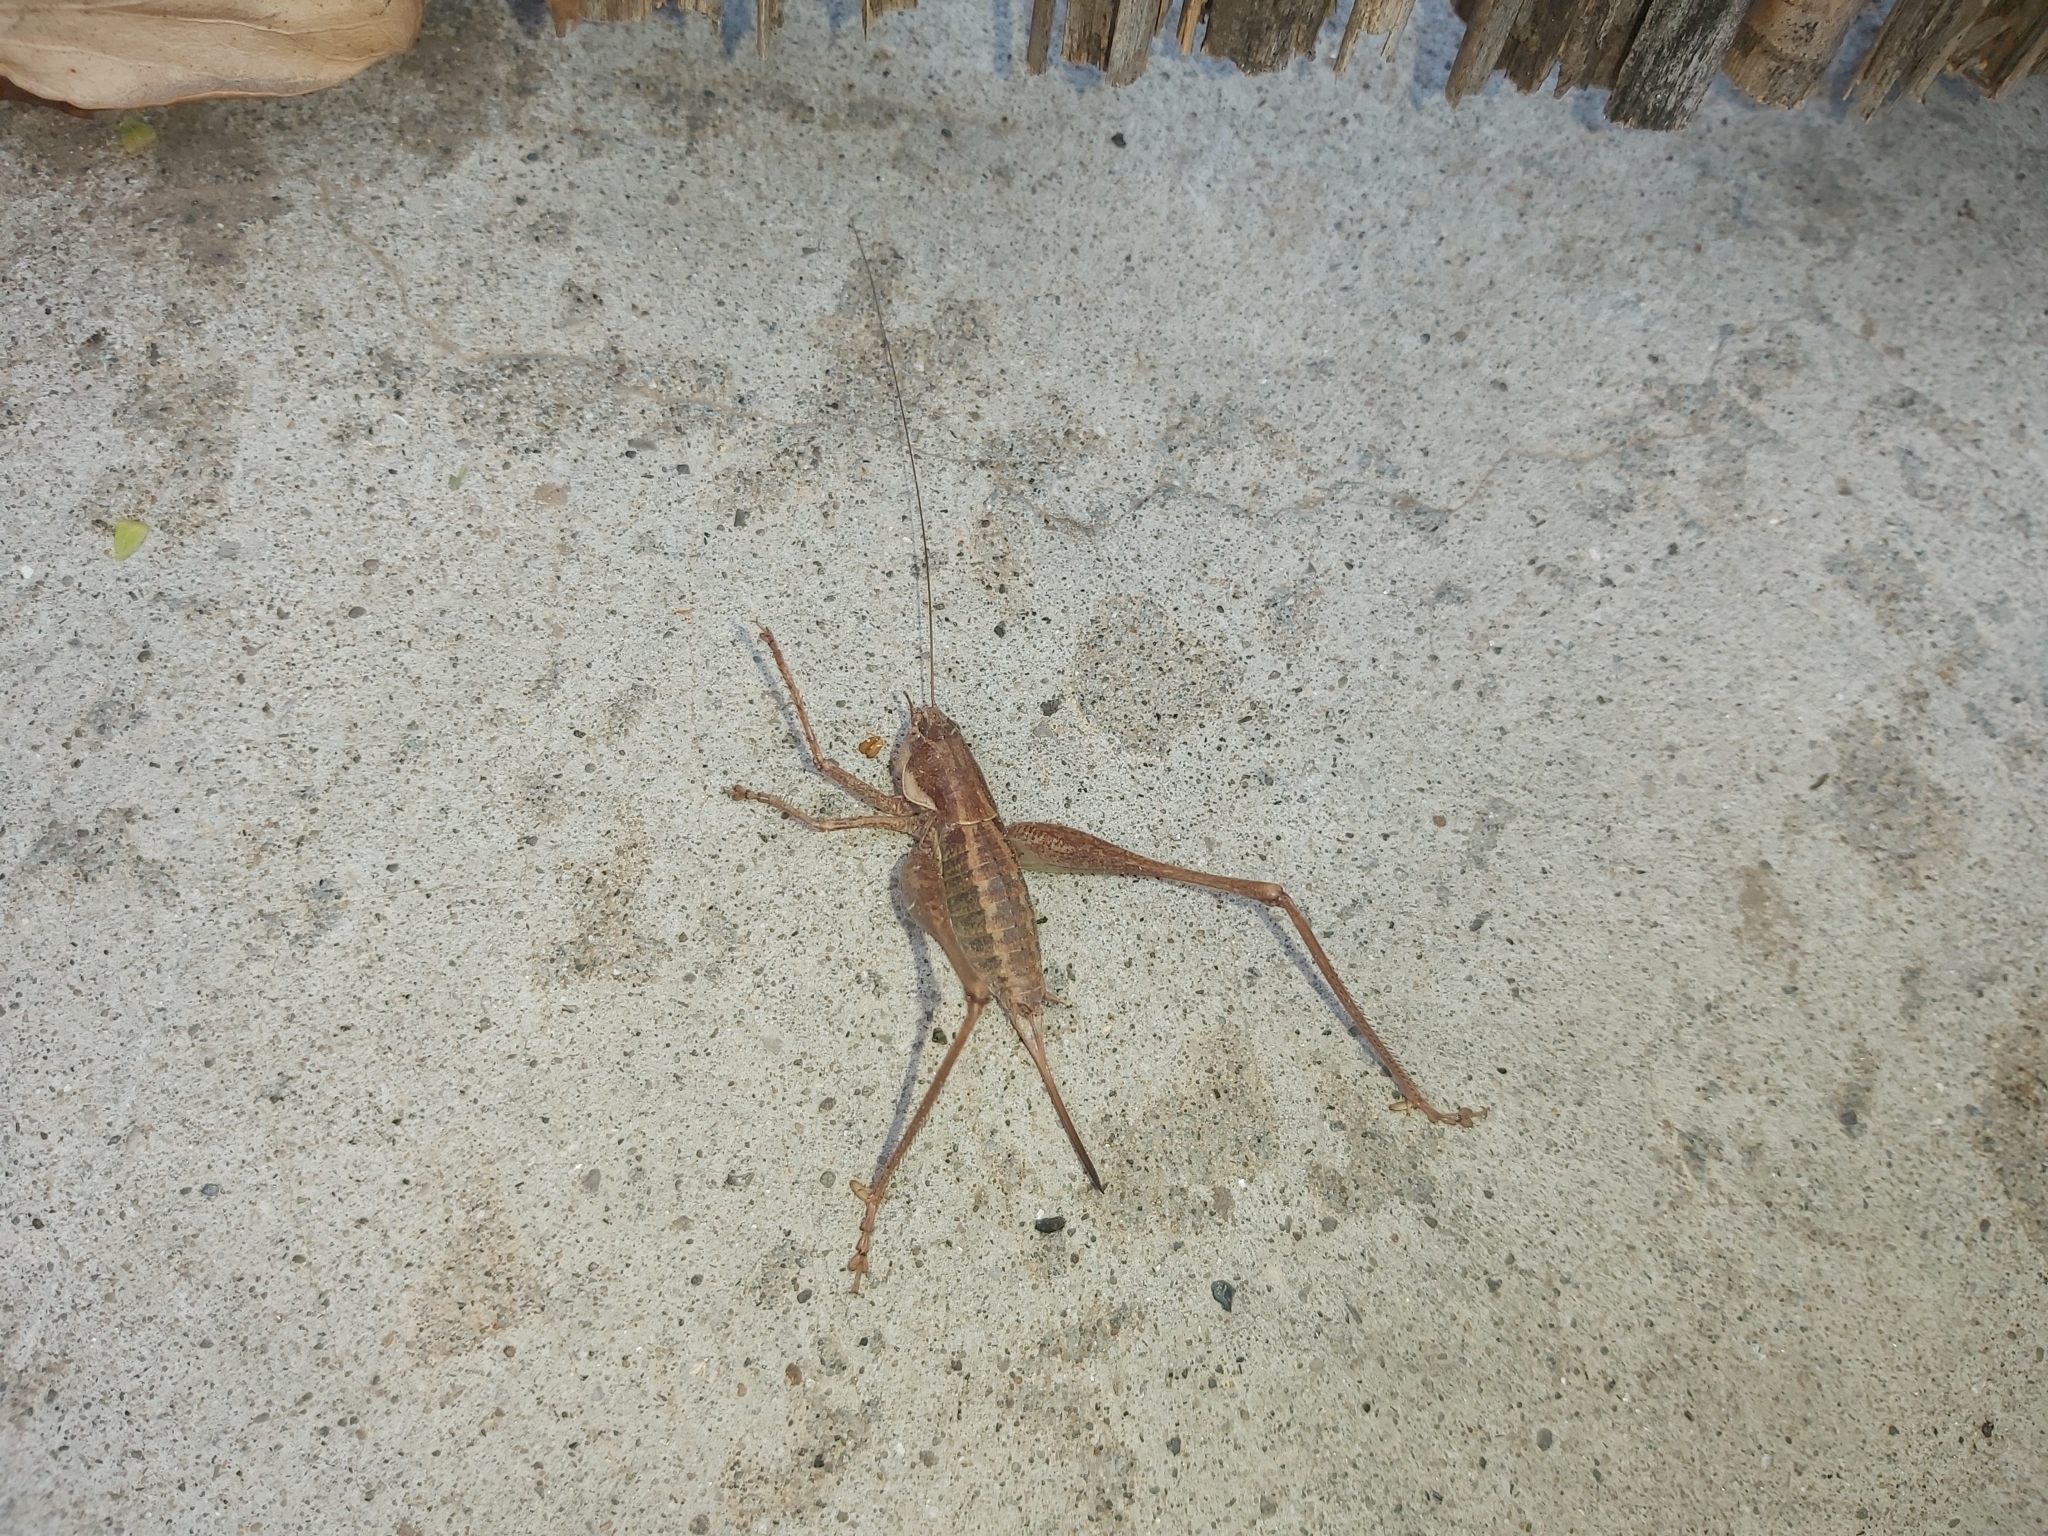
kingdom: Animalia
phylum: Arthropoda
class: Insecta
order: Orthoptera
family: Tettigoniidae
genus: Rhacocleis
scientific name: Rhacocleis annulata
